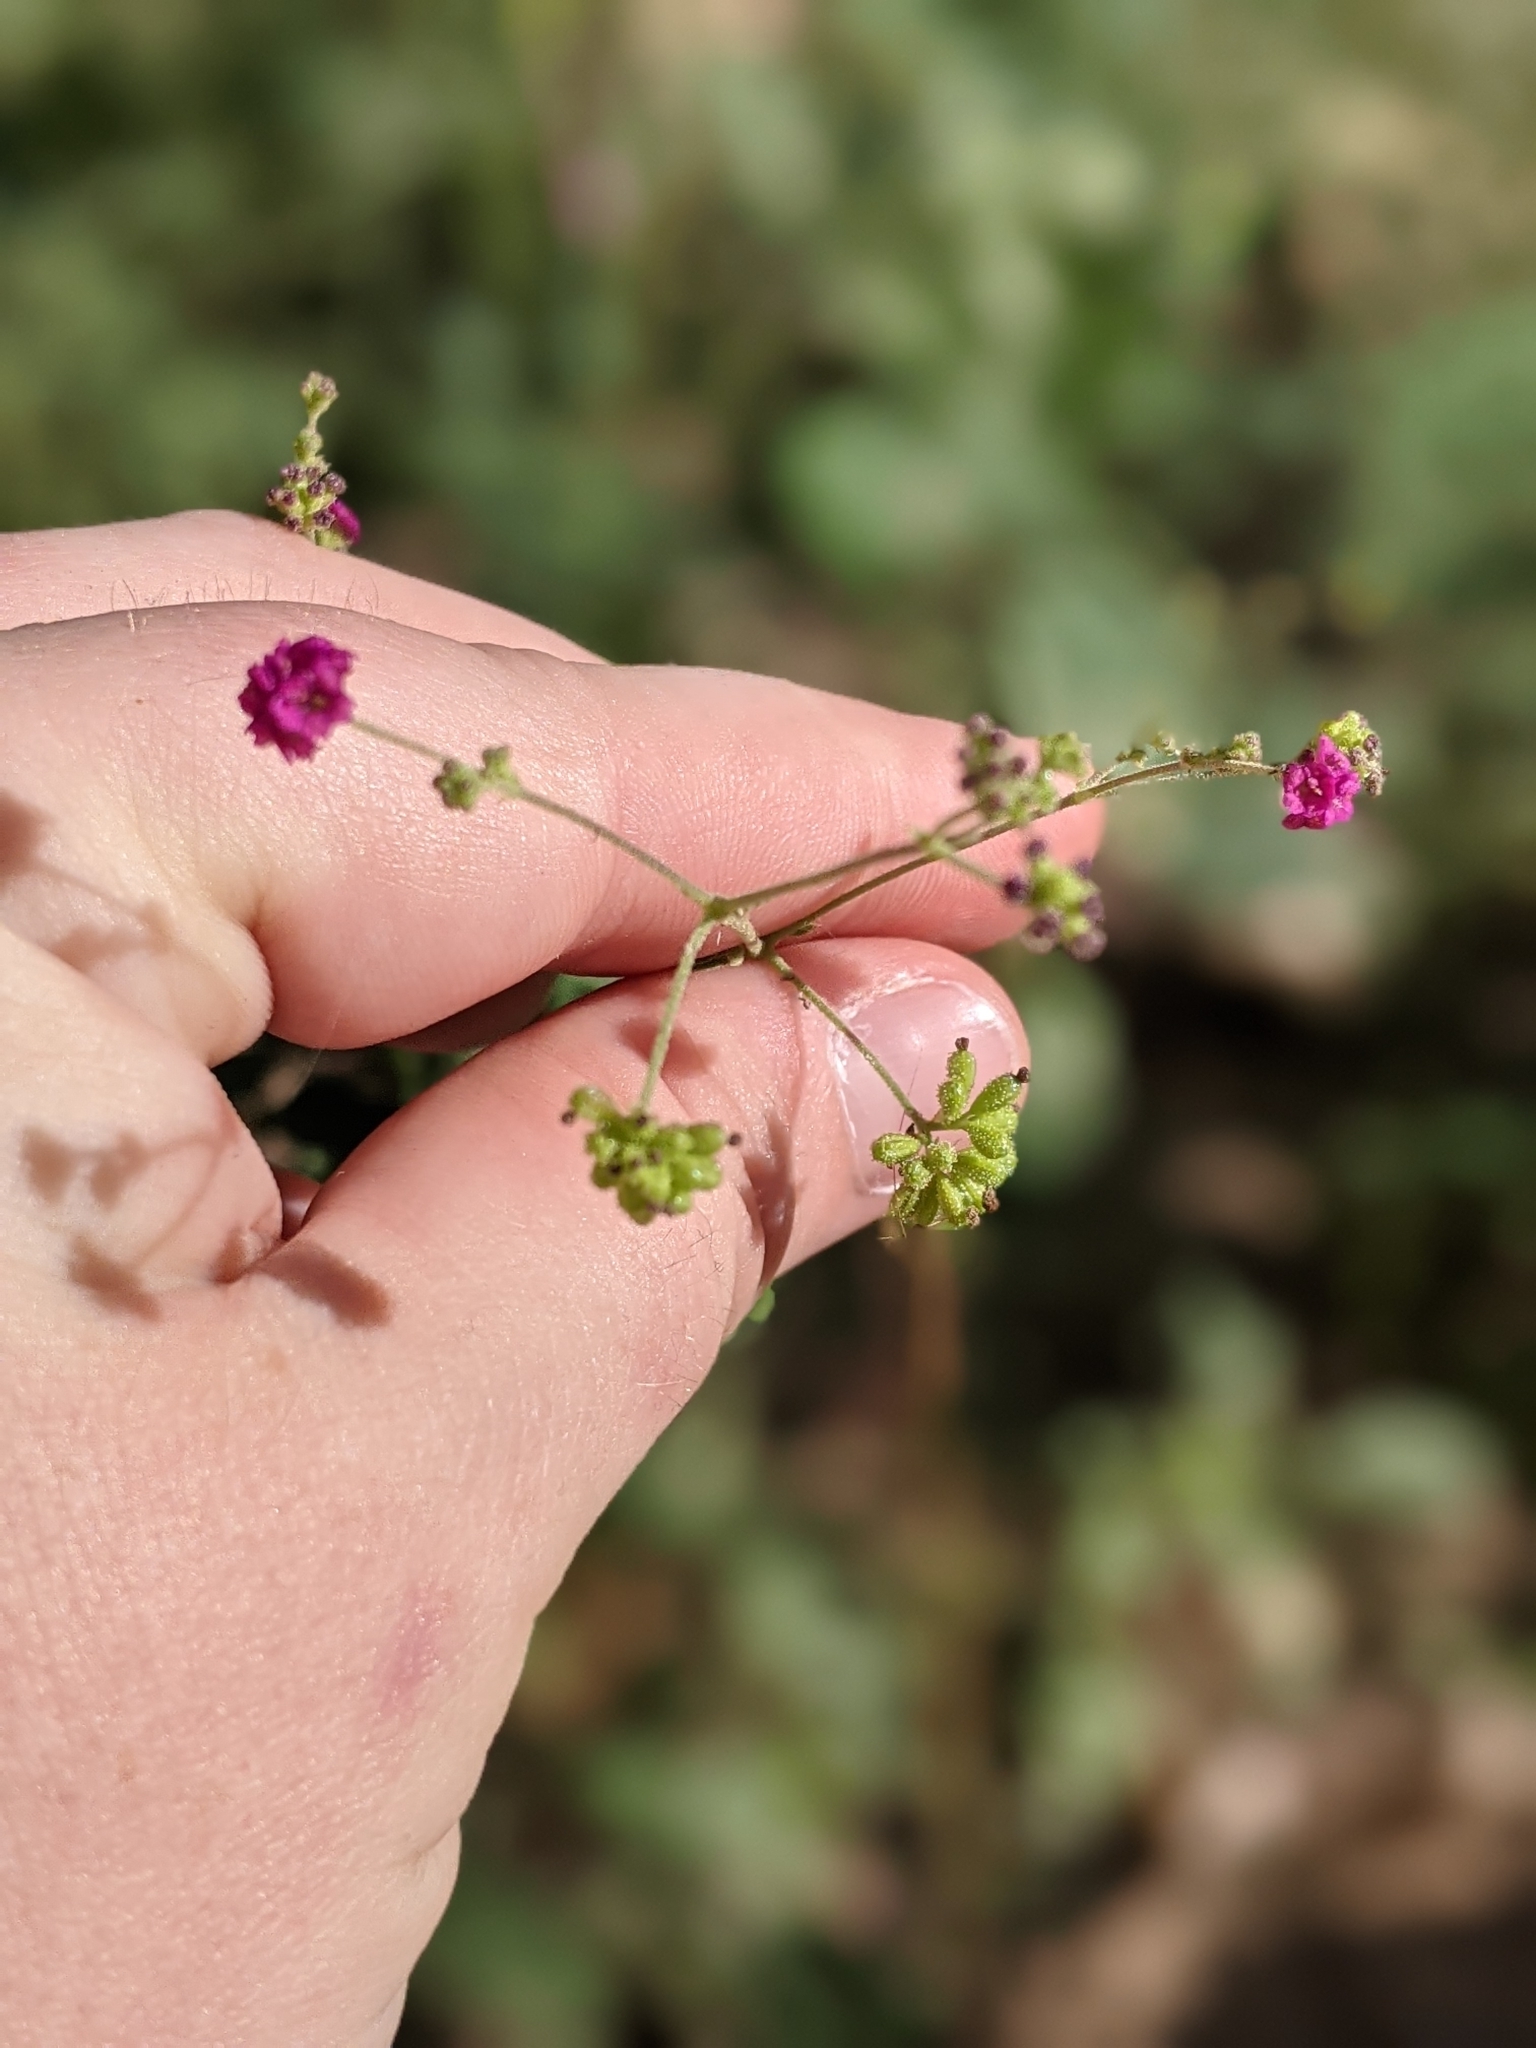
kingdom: Plantae
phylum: Tracheophyta
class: Magnoliopsida
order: Caryophyllales
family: Nyctaginaceae
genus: Boerhavia
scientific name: Boerhavia coccinea
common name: Scarlet spiderling
